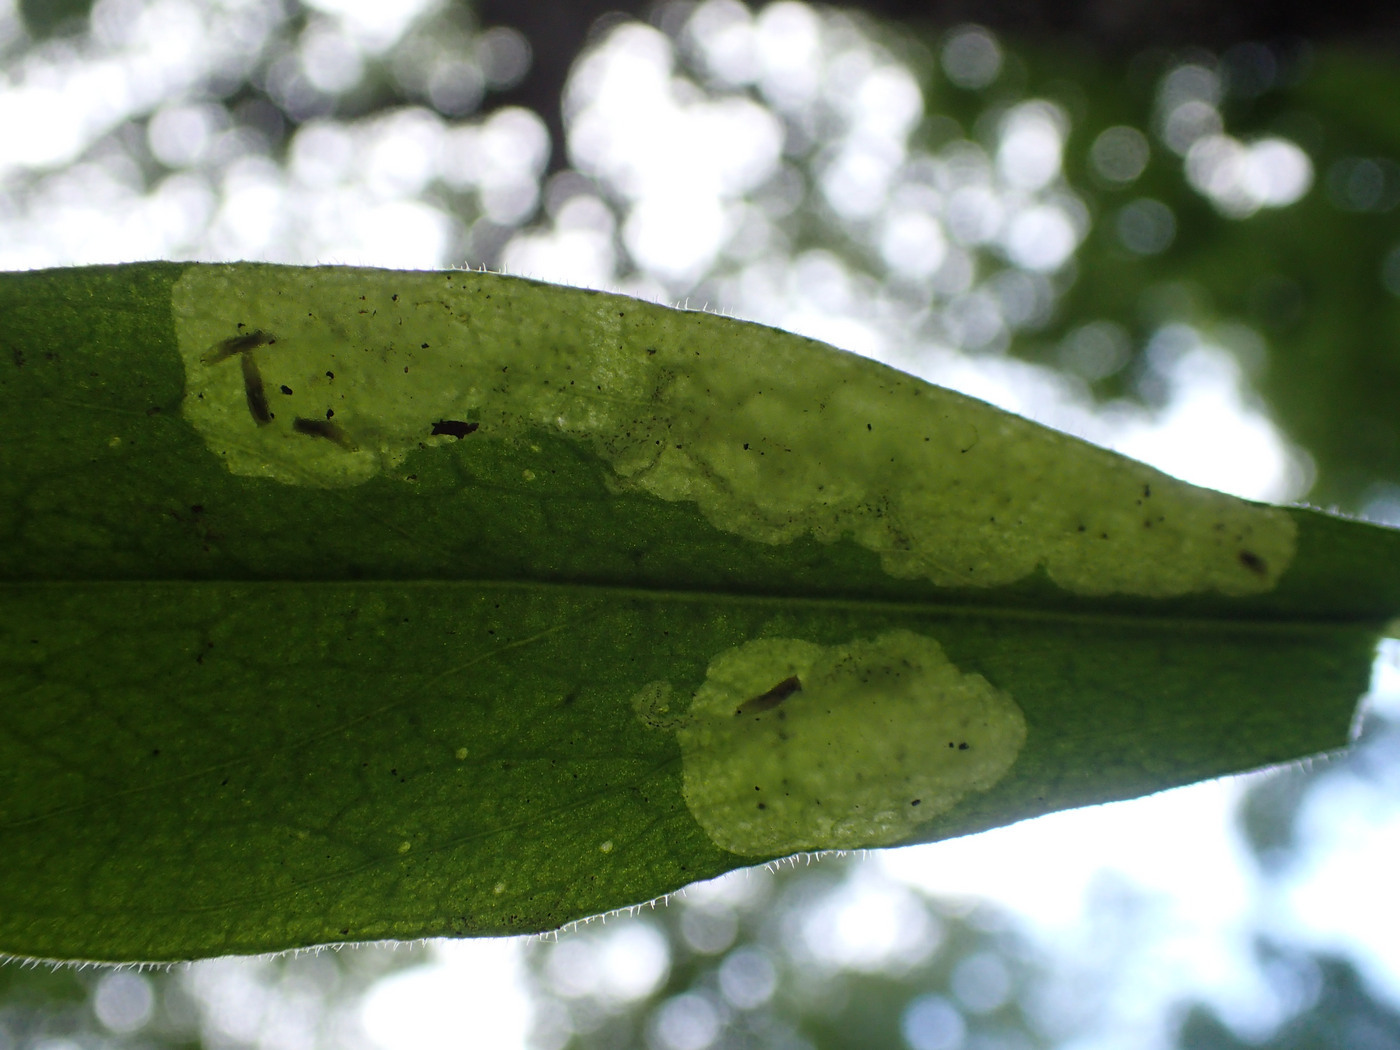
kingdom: Animalia
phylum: Arthropoda
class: Insecta
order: Diptera
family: Agromyzidae
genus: Amauromyza
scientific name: Amauromyza flavifrons
